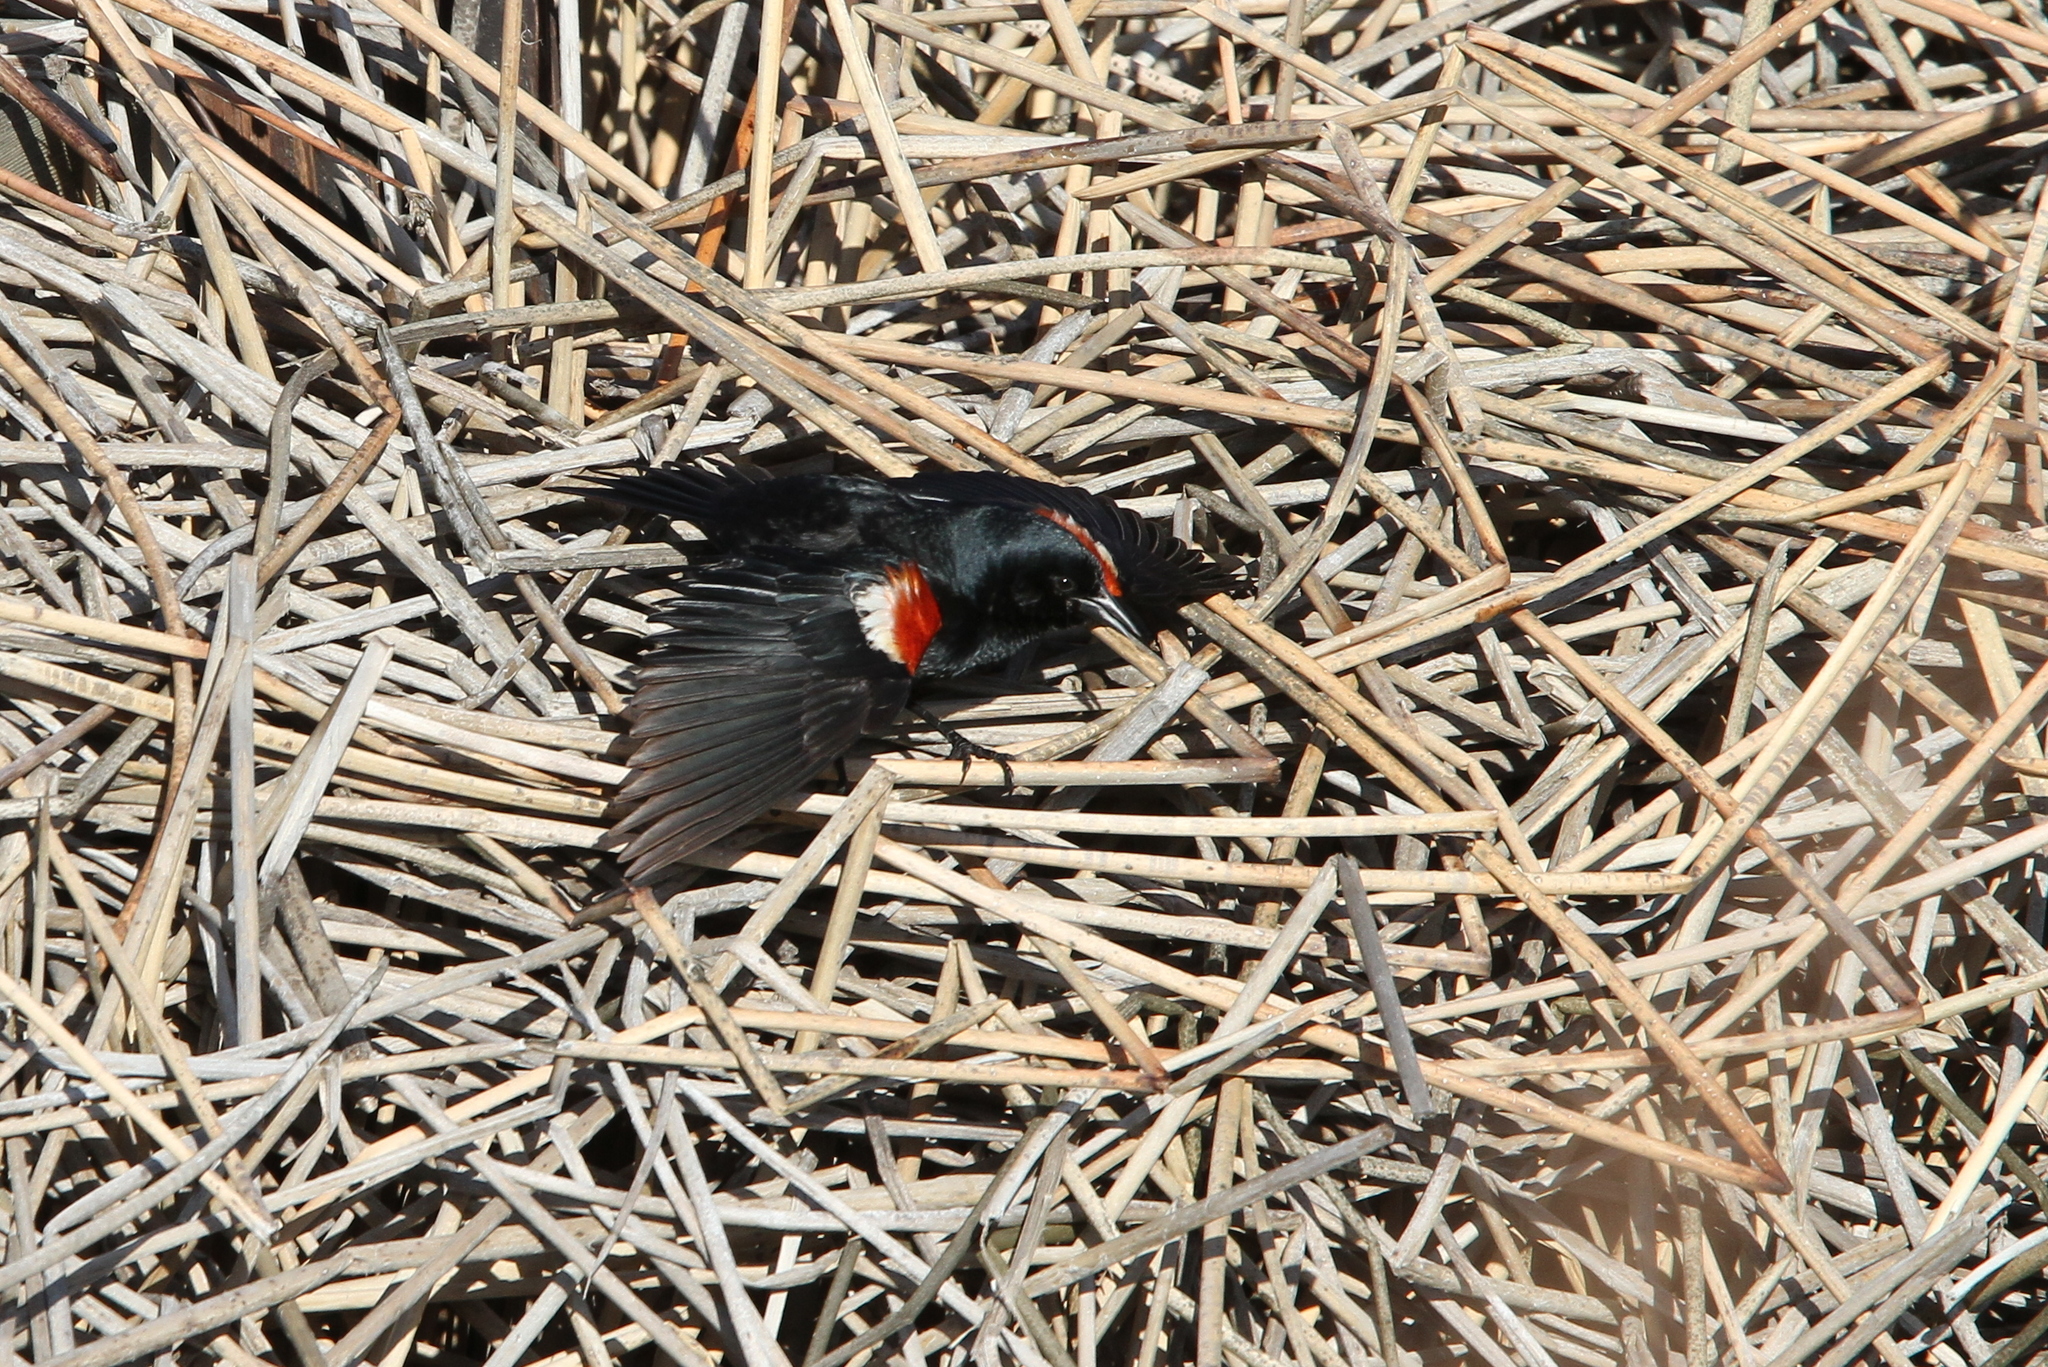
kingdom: Animalia
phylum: Chordata
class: Aves
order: Passeriformes
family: Icteridae
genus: Agelaius
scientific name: Agelaius tricolor
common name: Tricolored blackbird
